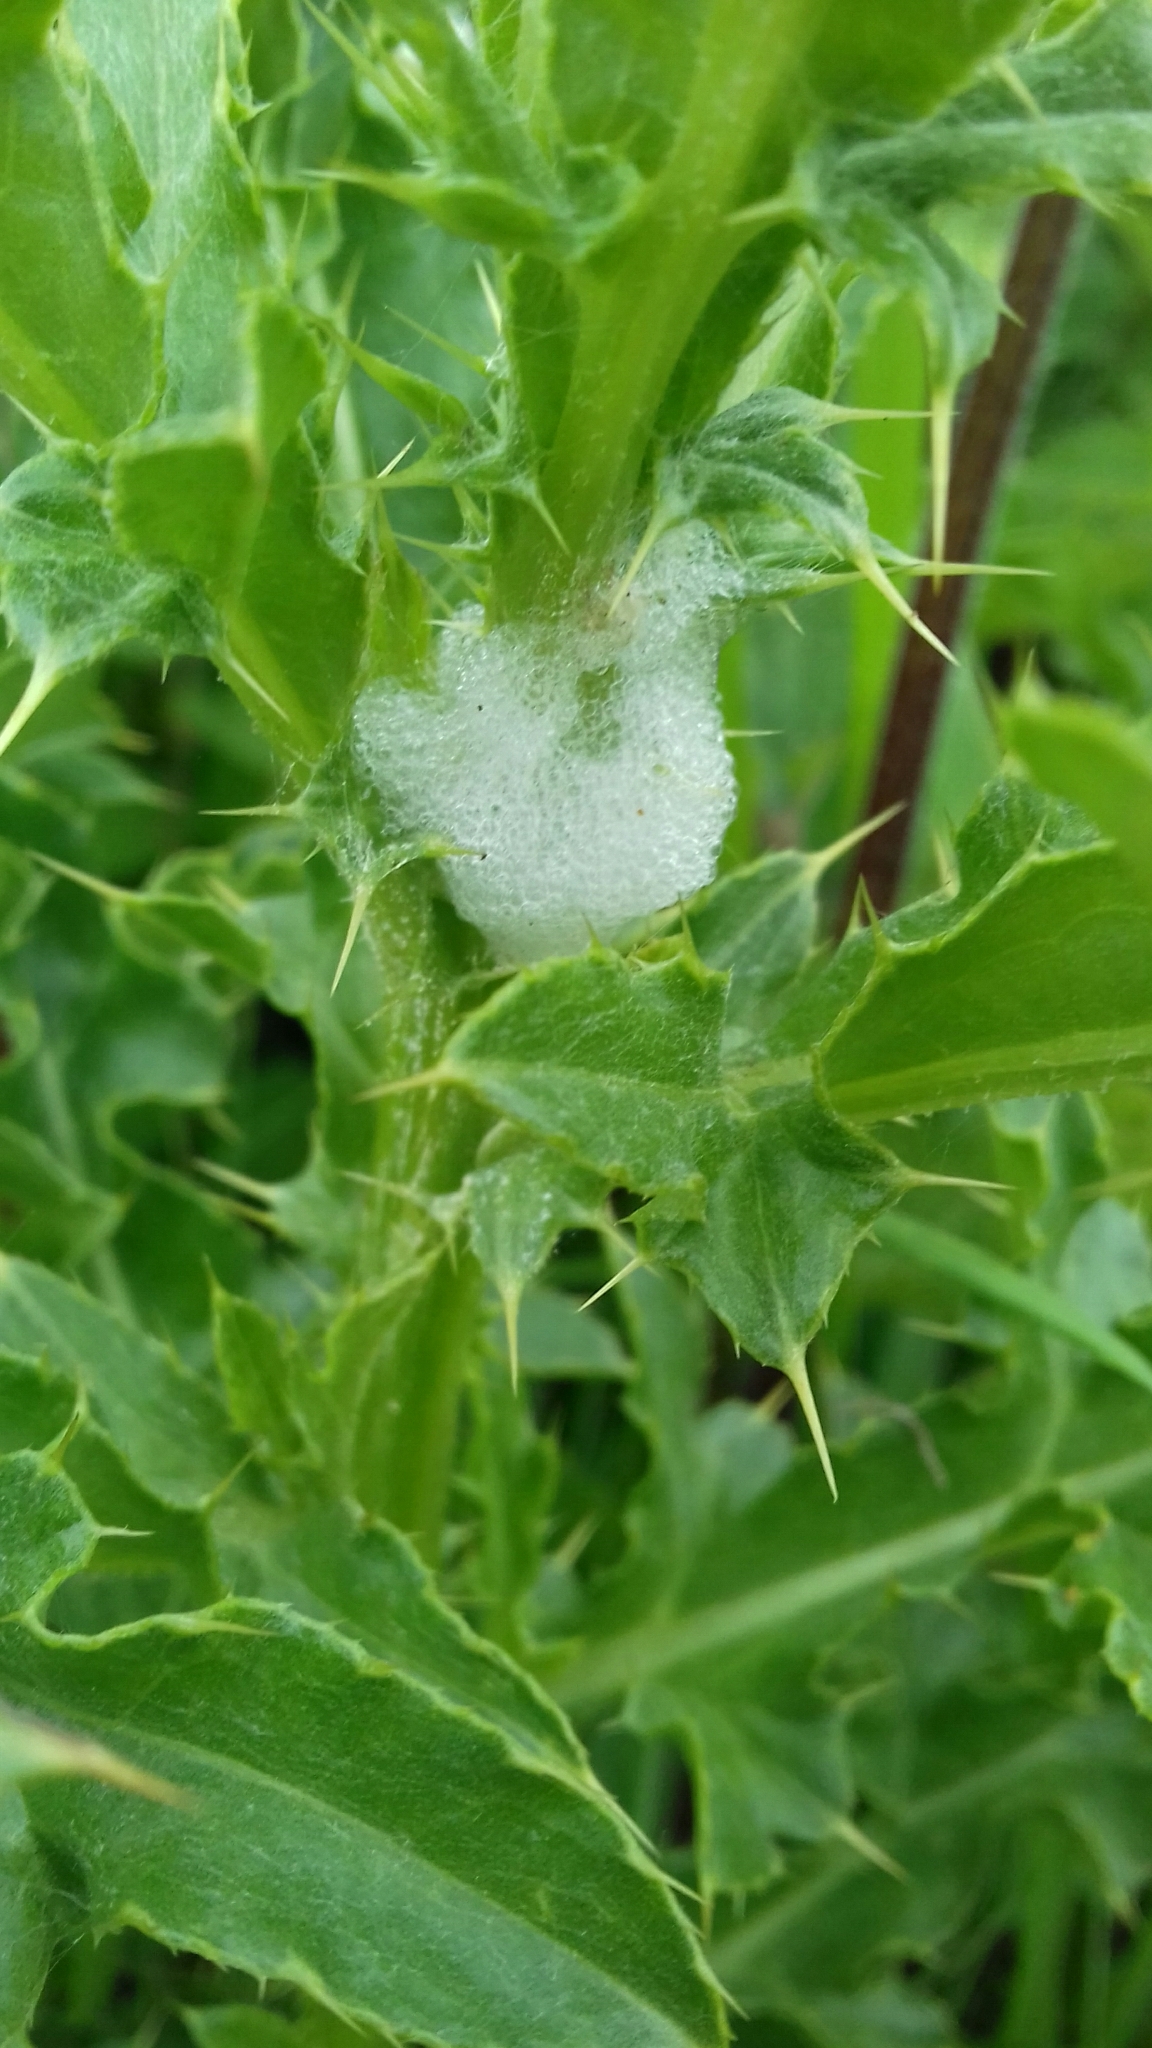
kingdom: Animalia
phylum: Arthropoda
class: Insecta
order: Hemiptera
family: Aphrophoridae
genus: Philaenus
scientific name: Philaenus spumarius
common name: Meadow spittlebug
